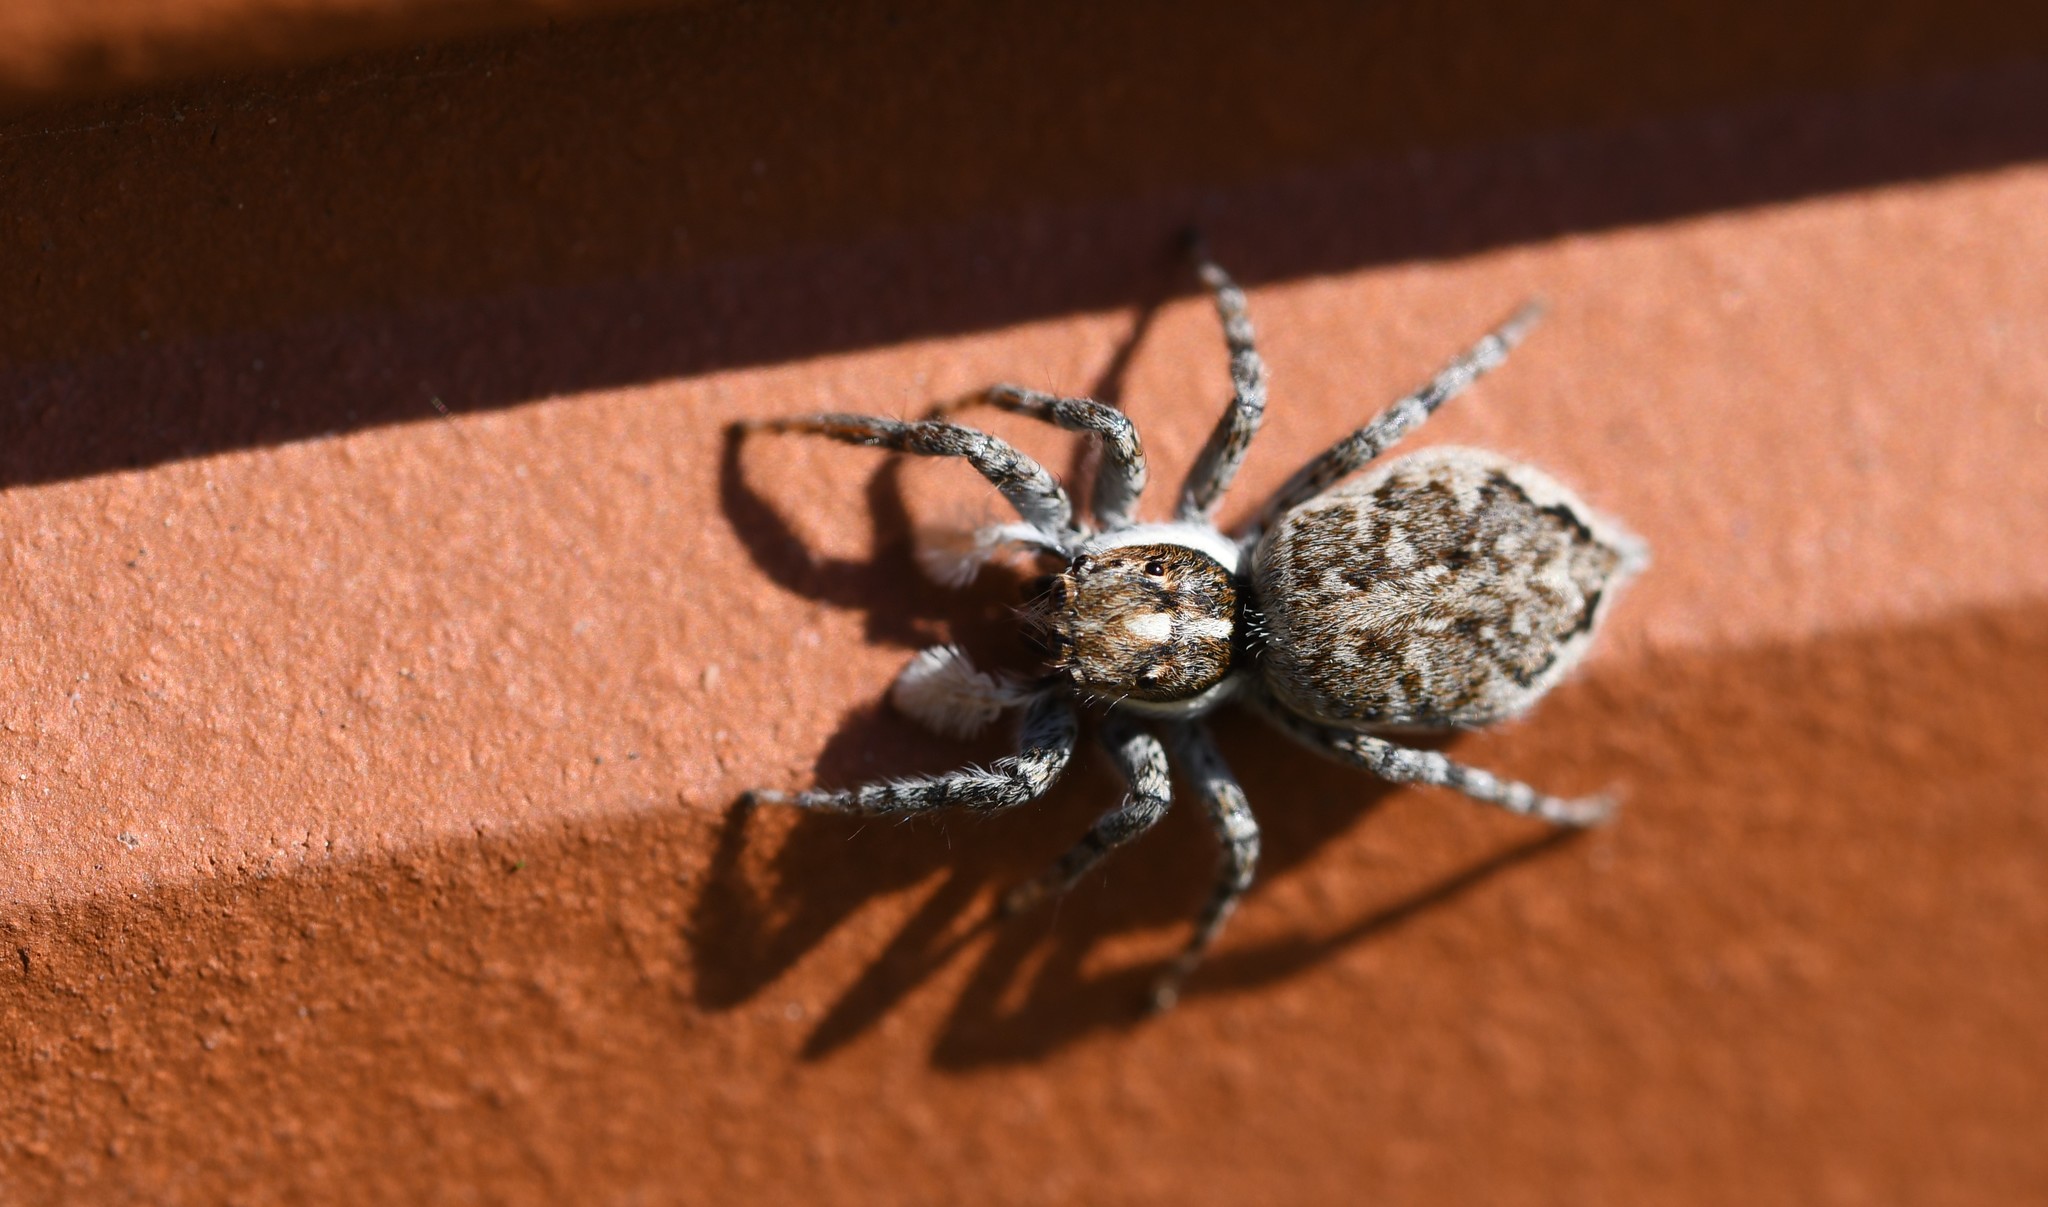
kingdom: Animalia
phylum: Arthropoda
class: Arachnida
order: Araneae
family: Salticidae
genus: Menemerus
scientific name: Menemerus semilimbatus
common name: Jumping spider
